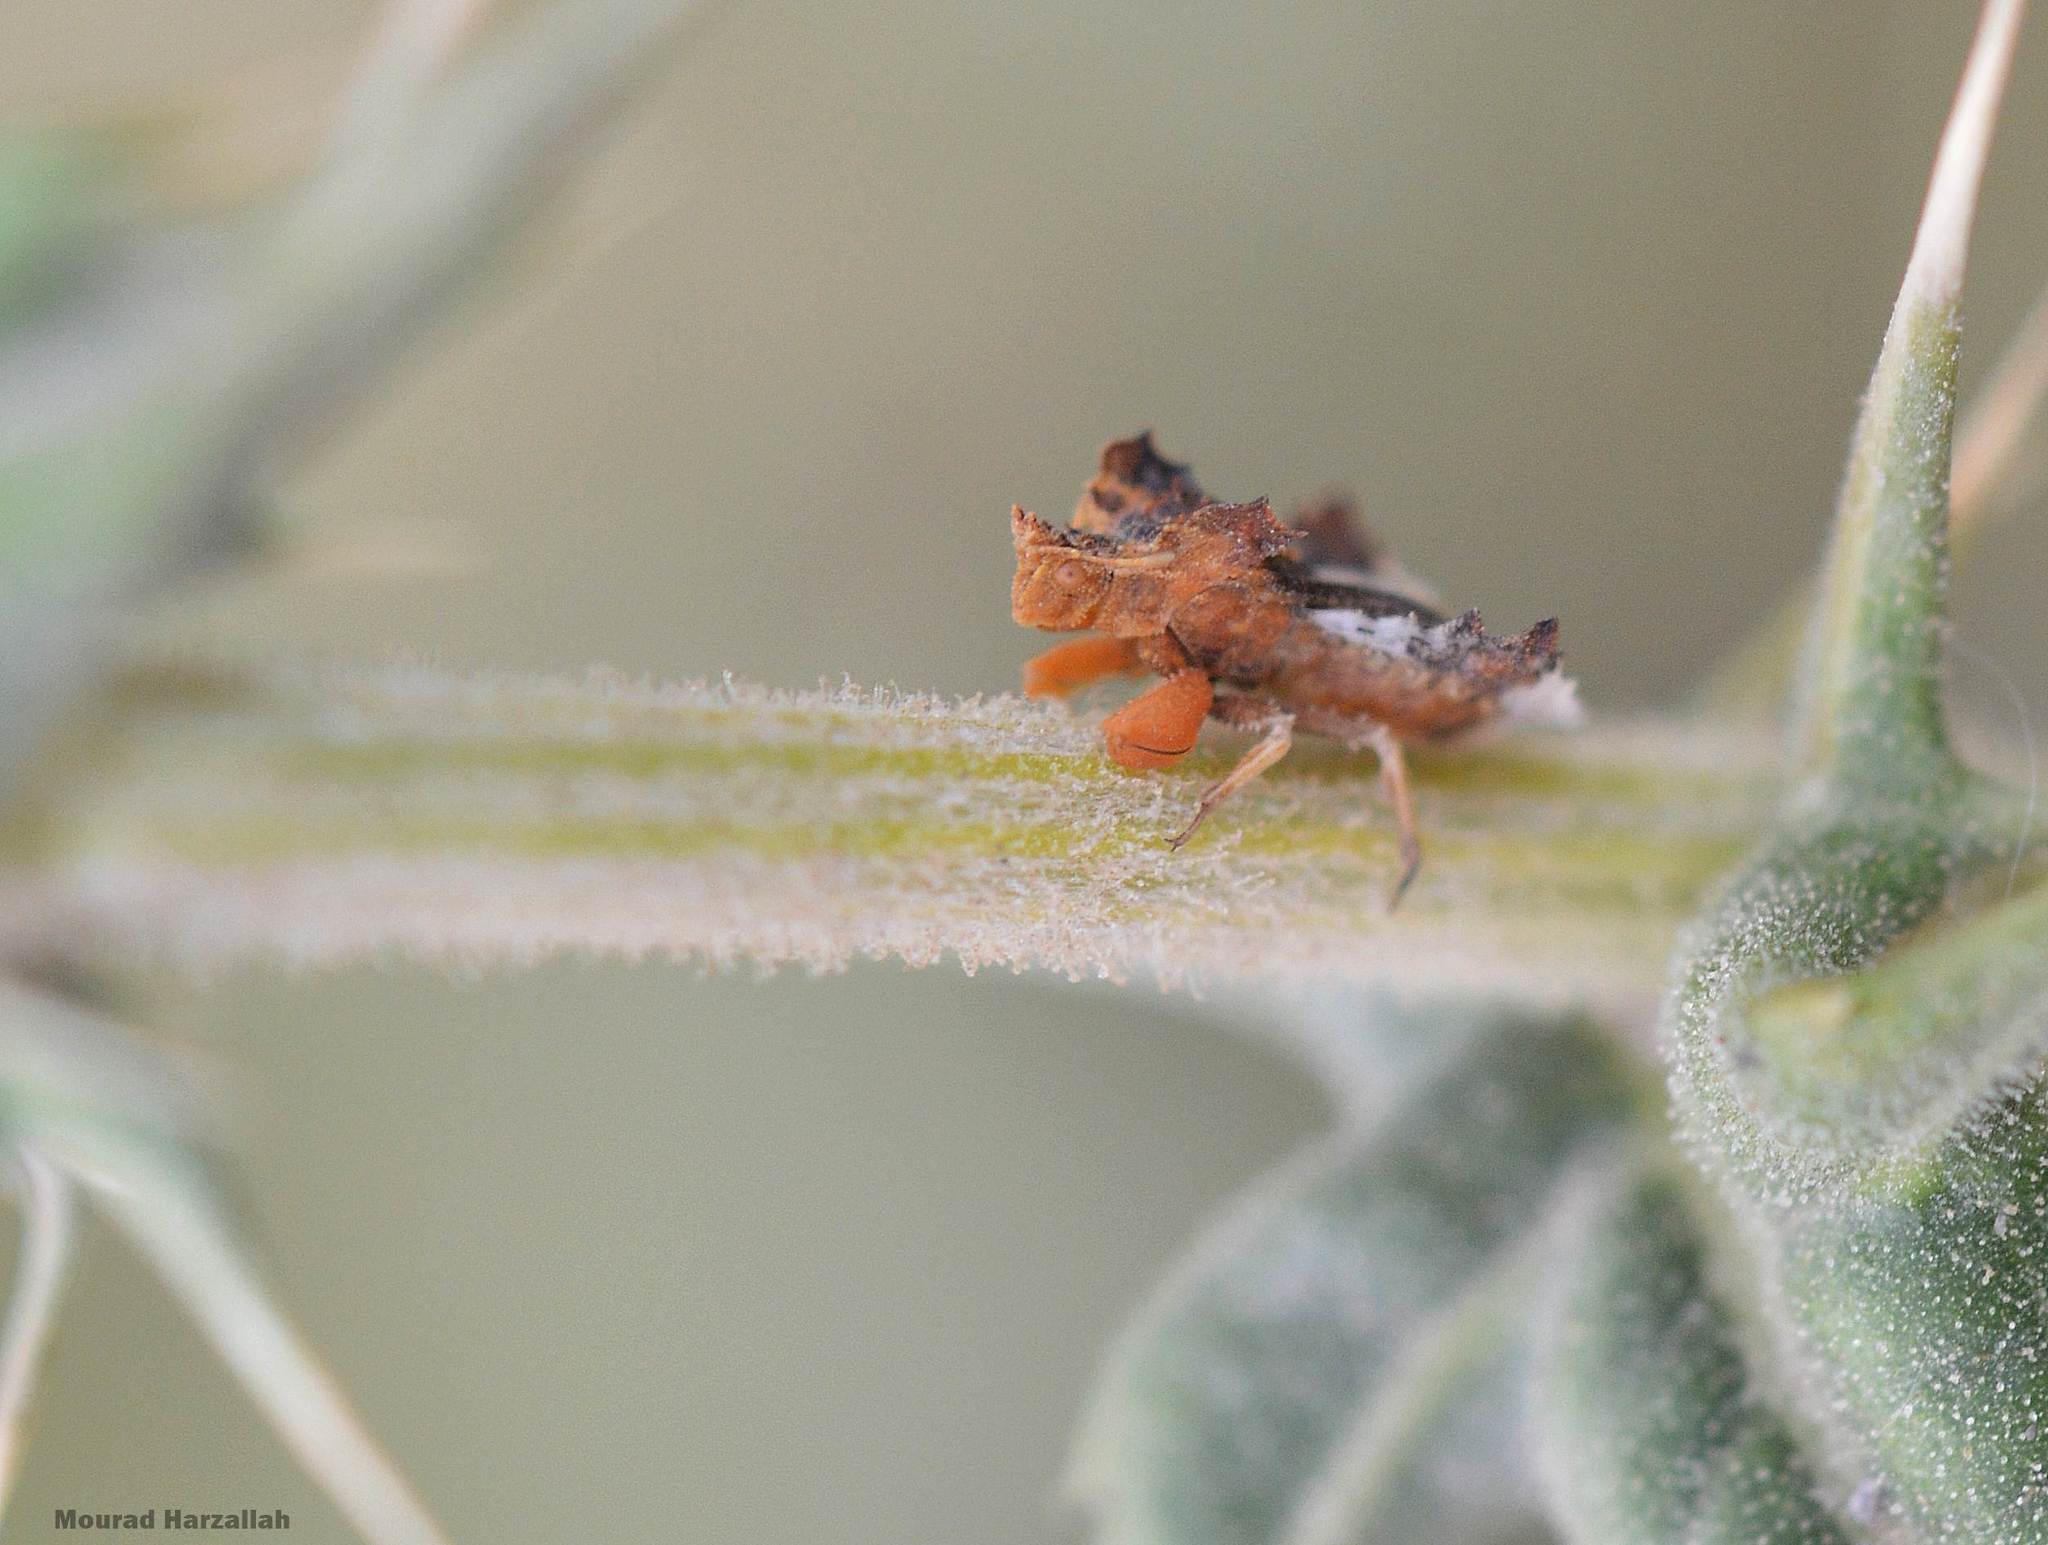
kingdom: Animalia
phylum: Arthropoda
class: Insecta
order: Hemiptera
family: Reduviidae
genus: Phymata
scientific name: Phymata monstrosa
